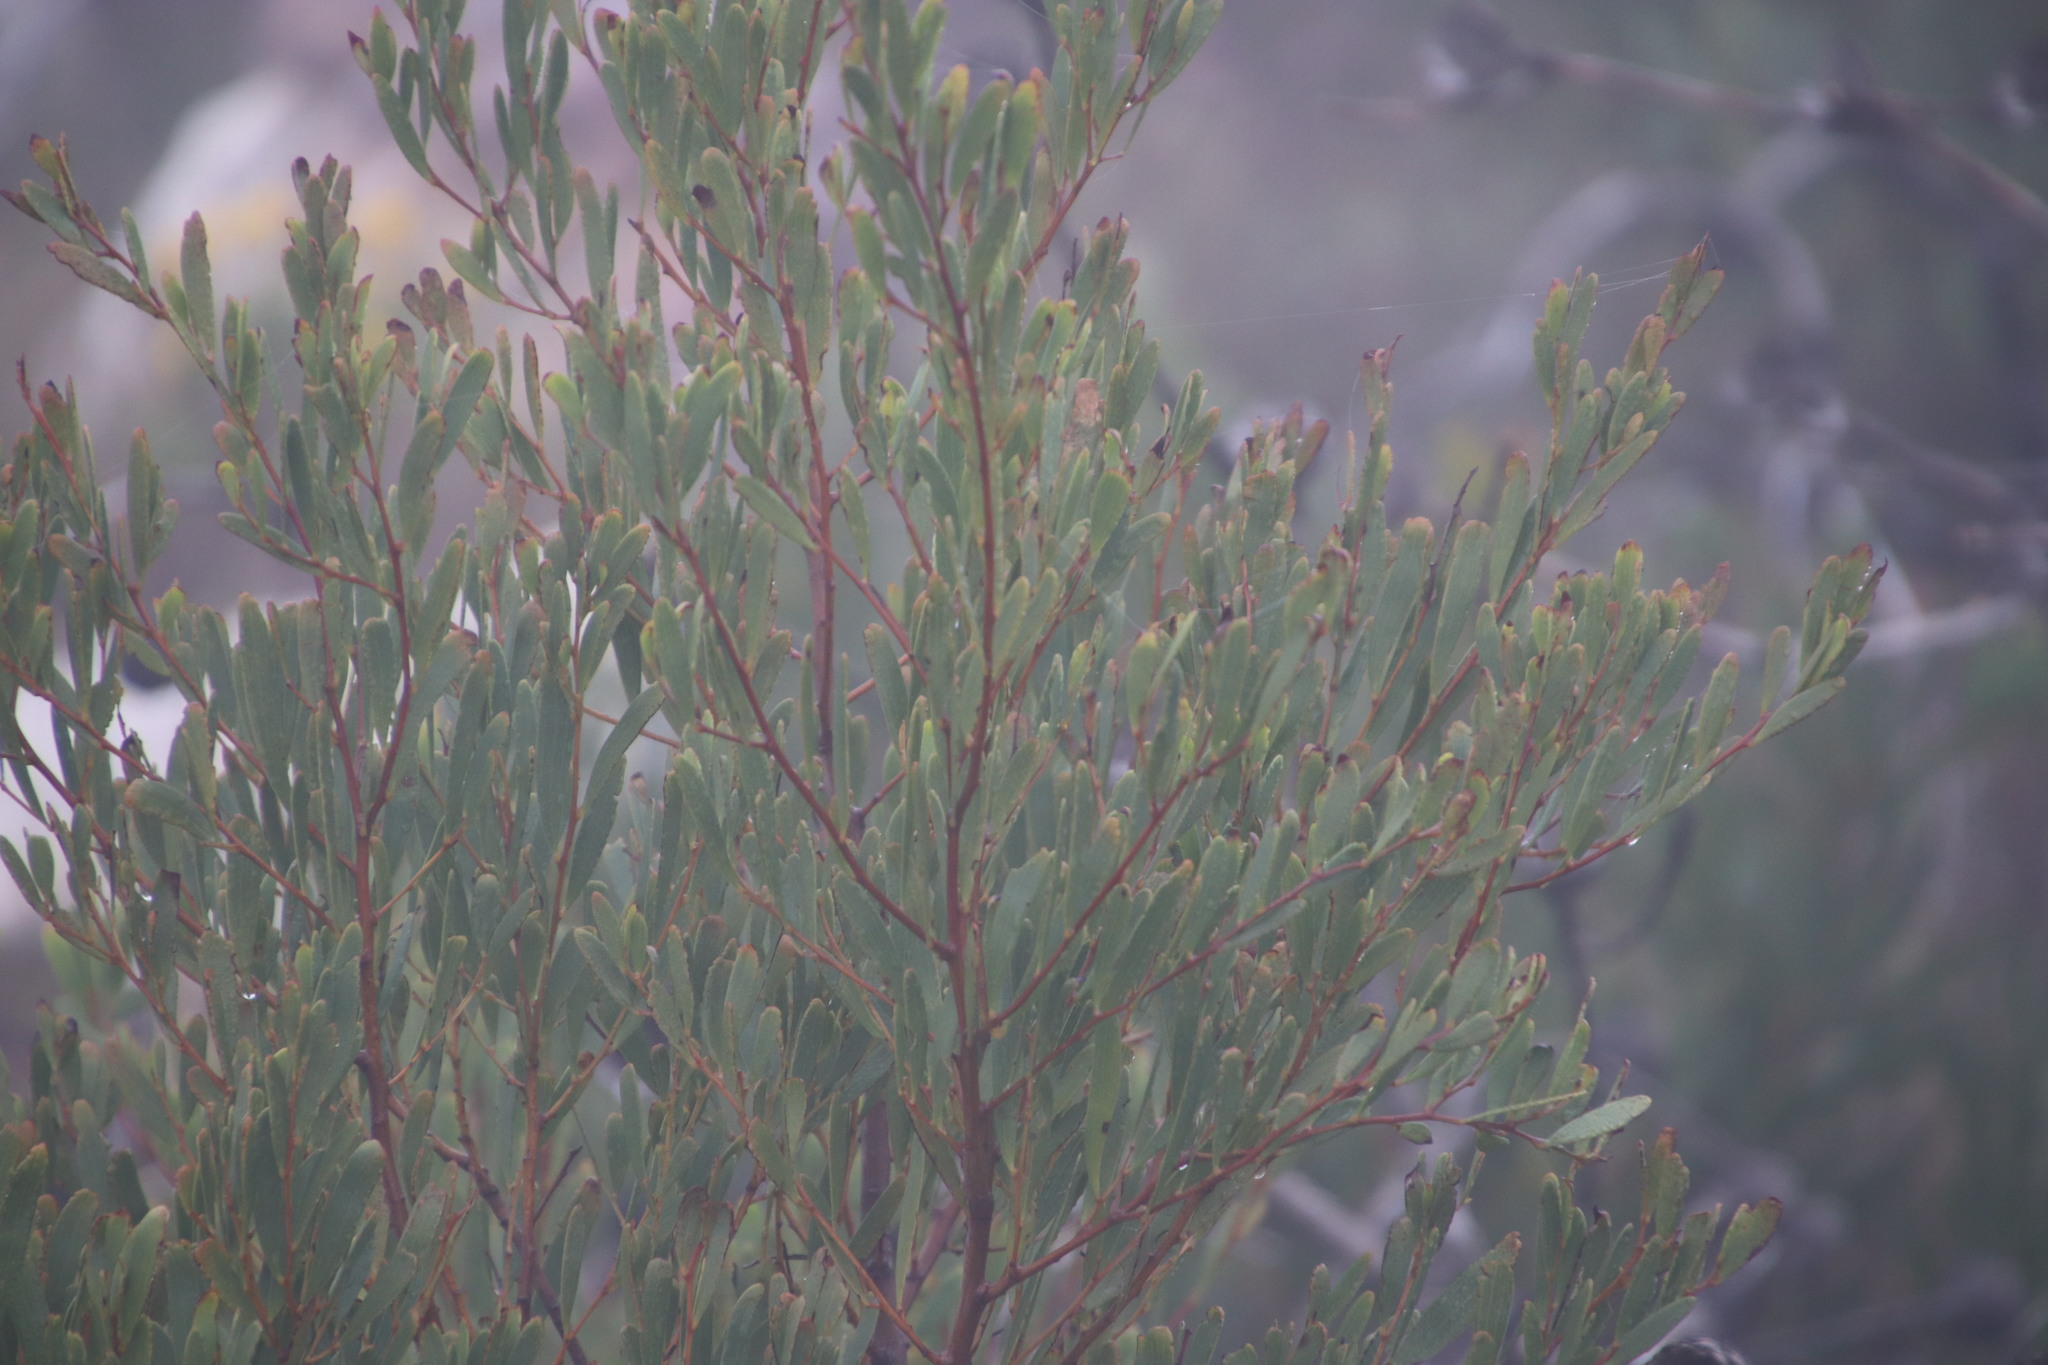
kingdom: Plantae
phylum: Tracheophyta
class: Magnoliopsida
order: Fabales
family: Fabaceae
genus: Acacia
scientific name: Acacia cyclops
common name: Coastal wattle
